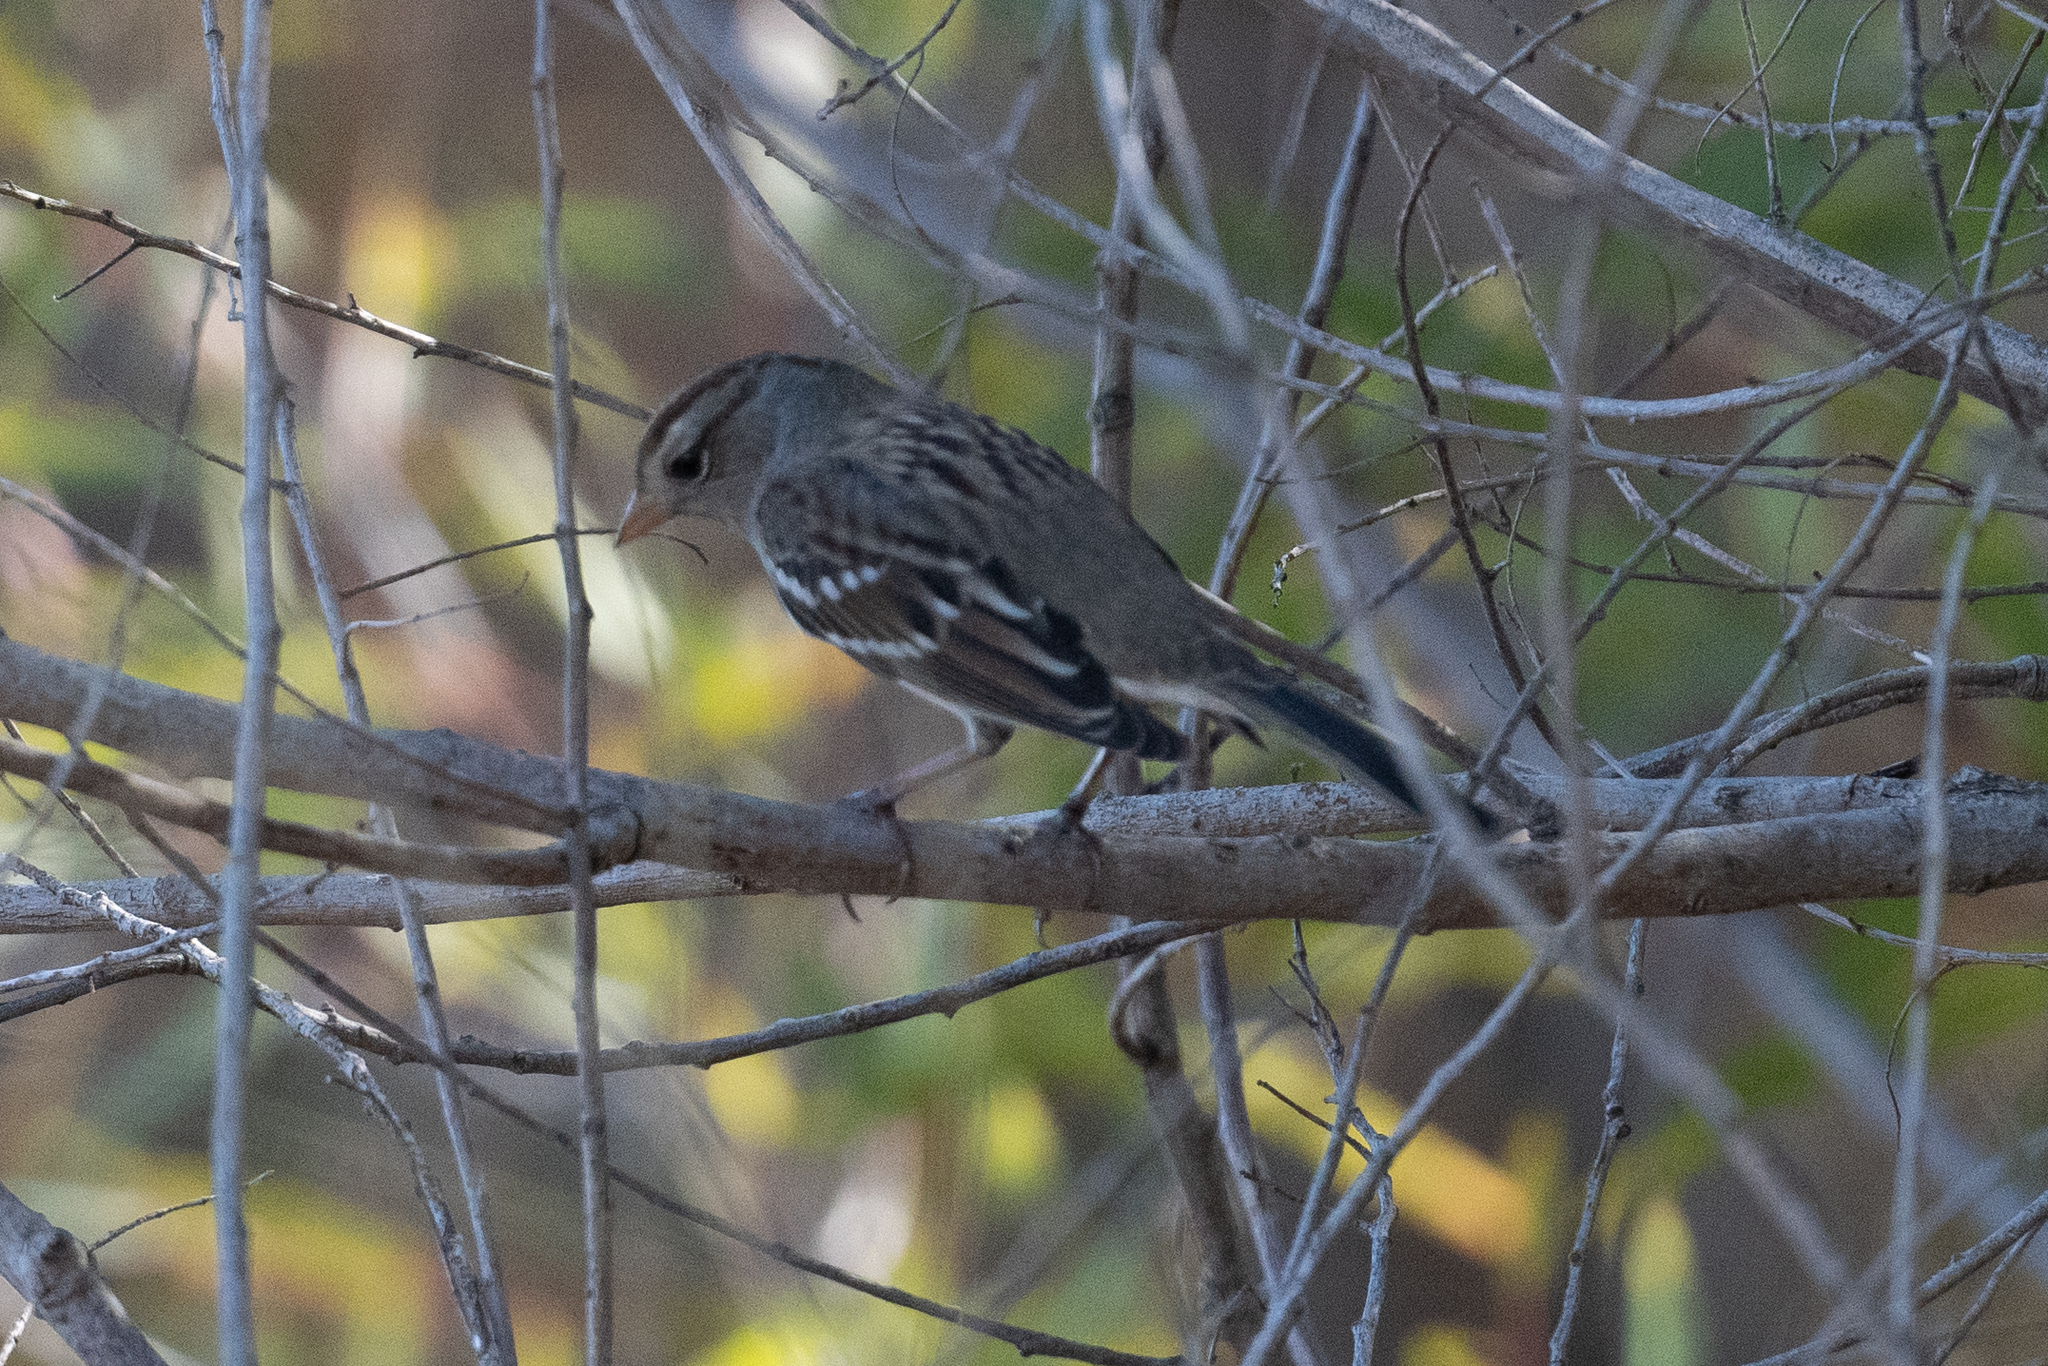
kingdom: Animalia
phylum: Chordata
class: Aves
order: Passeriformes
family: Passerellidae
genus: Zonotrichia
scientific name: Zonotrichia leucophrys
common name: White-crowned sparrow
